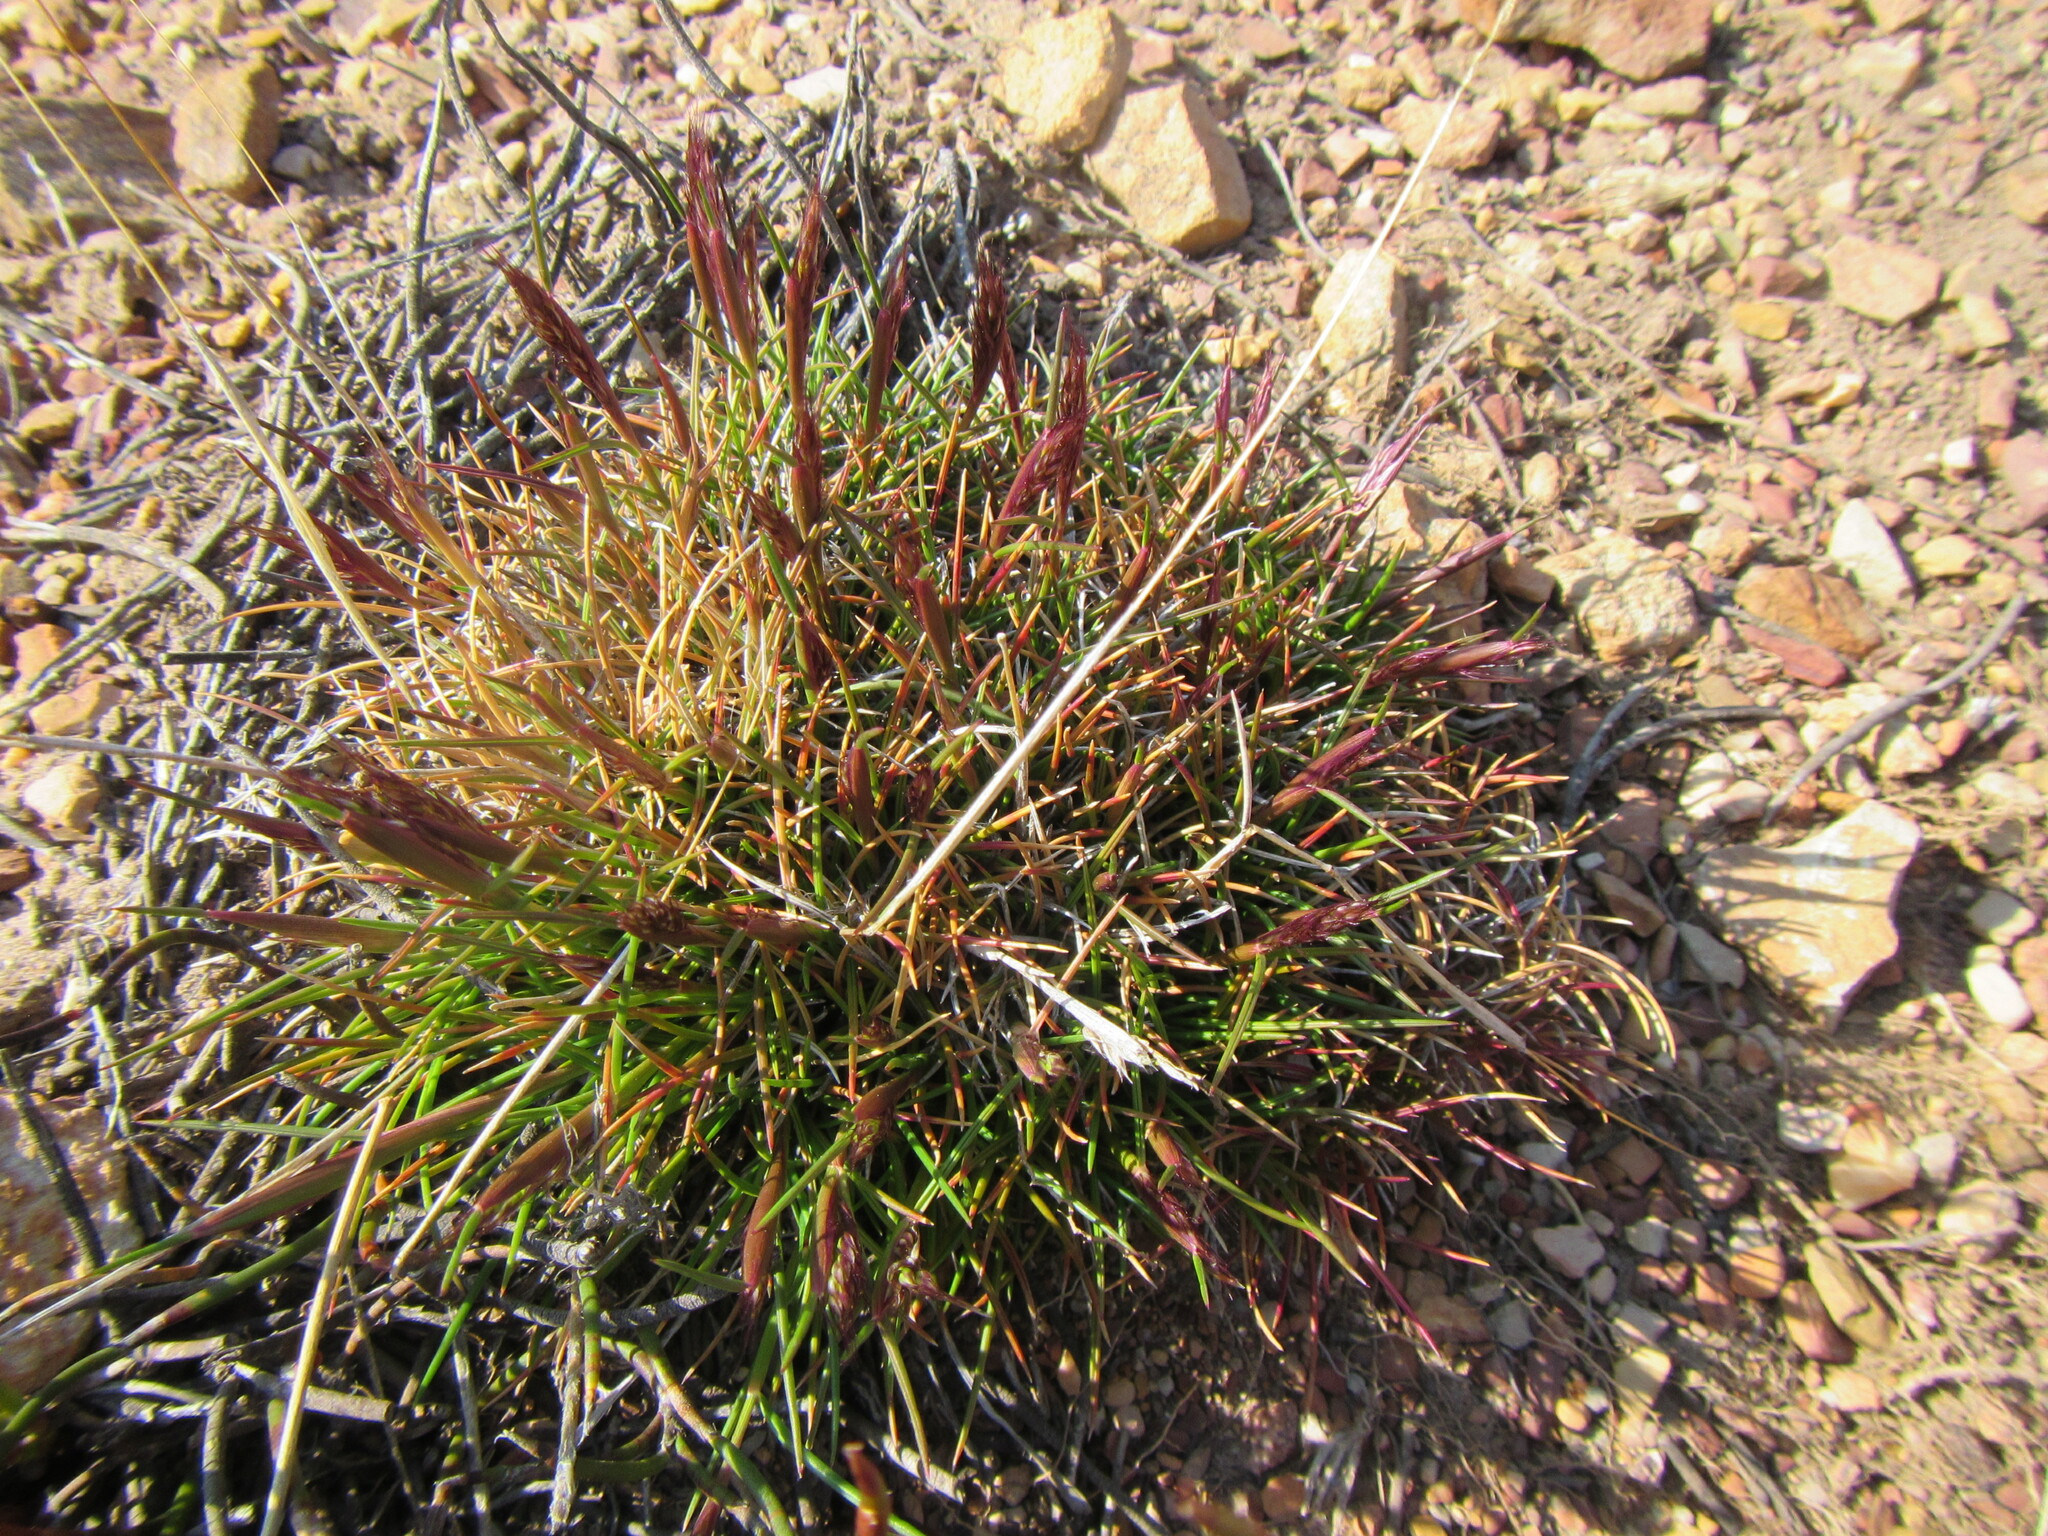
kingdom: Plantae
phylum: Tracheophyta
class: Liliopsida
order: Poales
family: Poaceae
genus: Pentameris
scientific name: Pentameris montana
